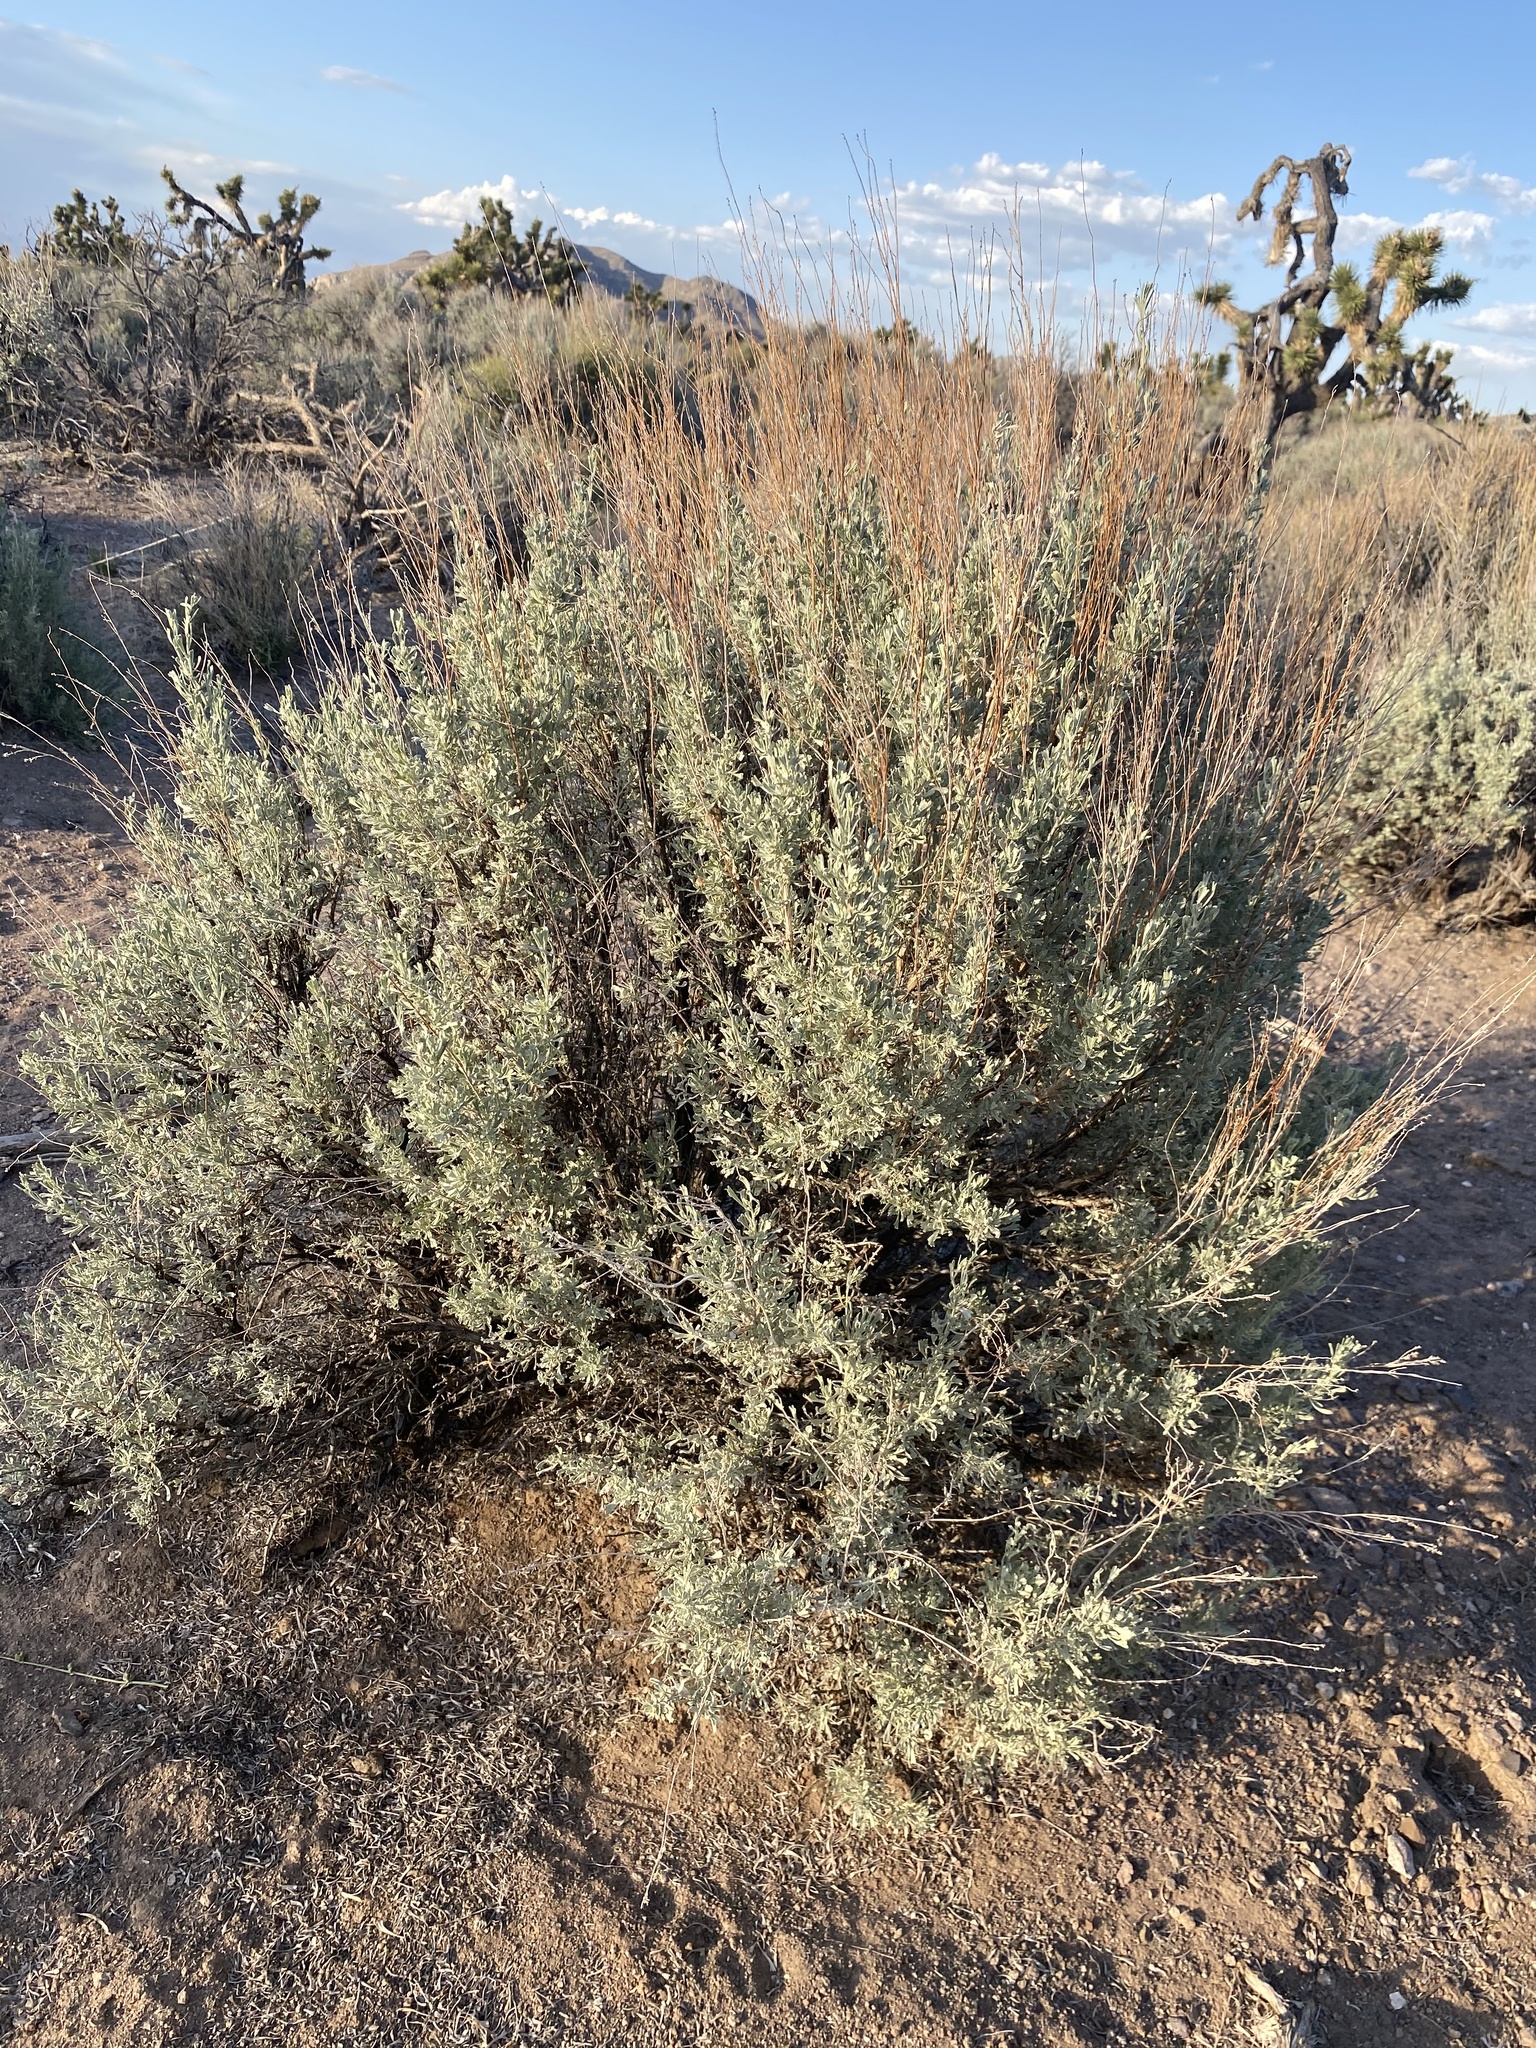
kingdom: Plantae
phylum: Tracheophyta
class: Magnoliopsida
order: Asterales
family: Asteraceae
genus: Artemisia
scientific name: Artemisia tridentata
